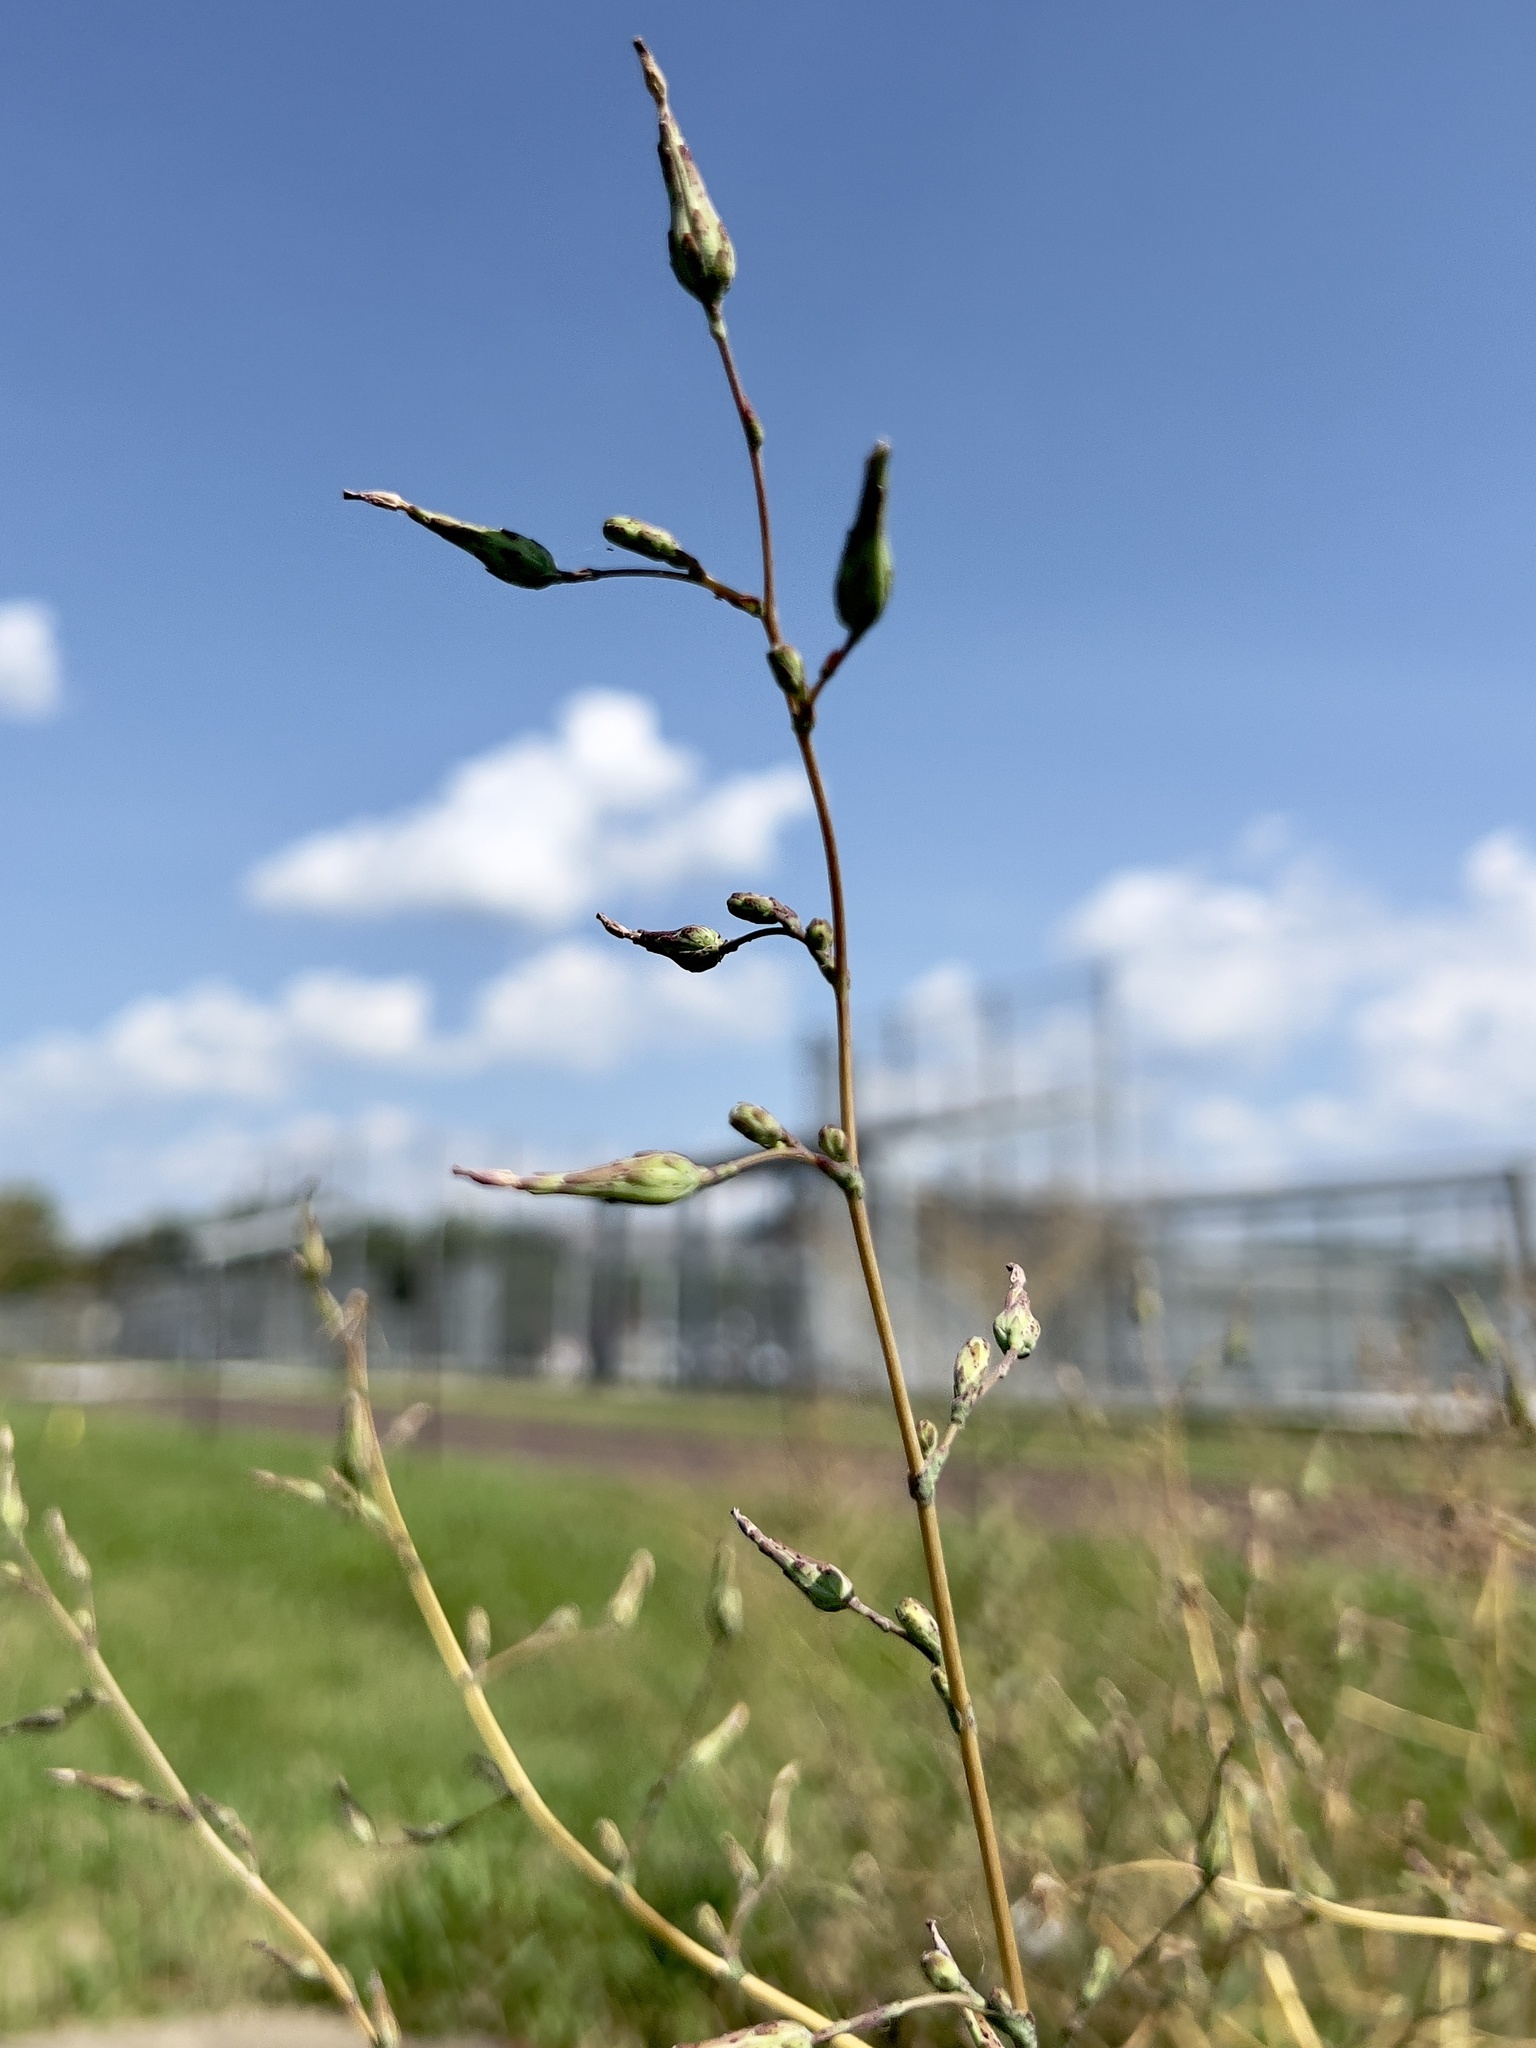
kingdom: Plantae
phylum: Tracheophyta
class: Magnoliopsida
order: Asterales
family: Asteraceae
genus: Lactuca
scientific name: Lactuca serriola
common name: Prickly lettuce
